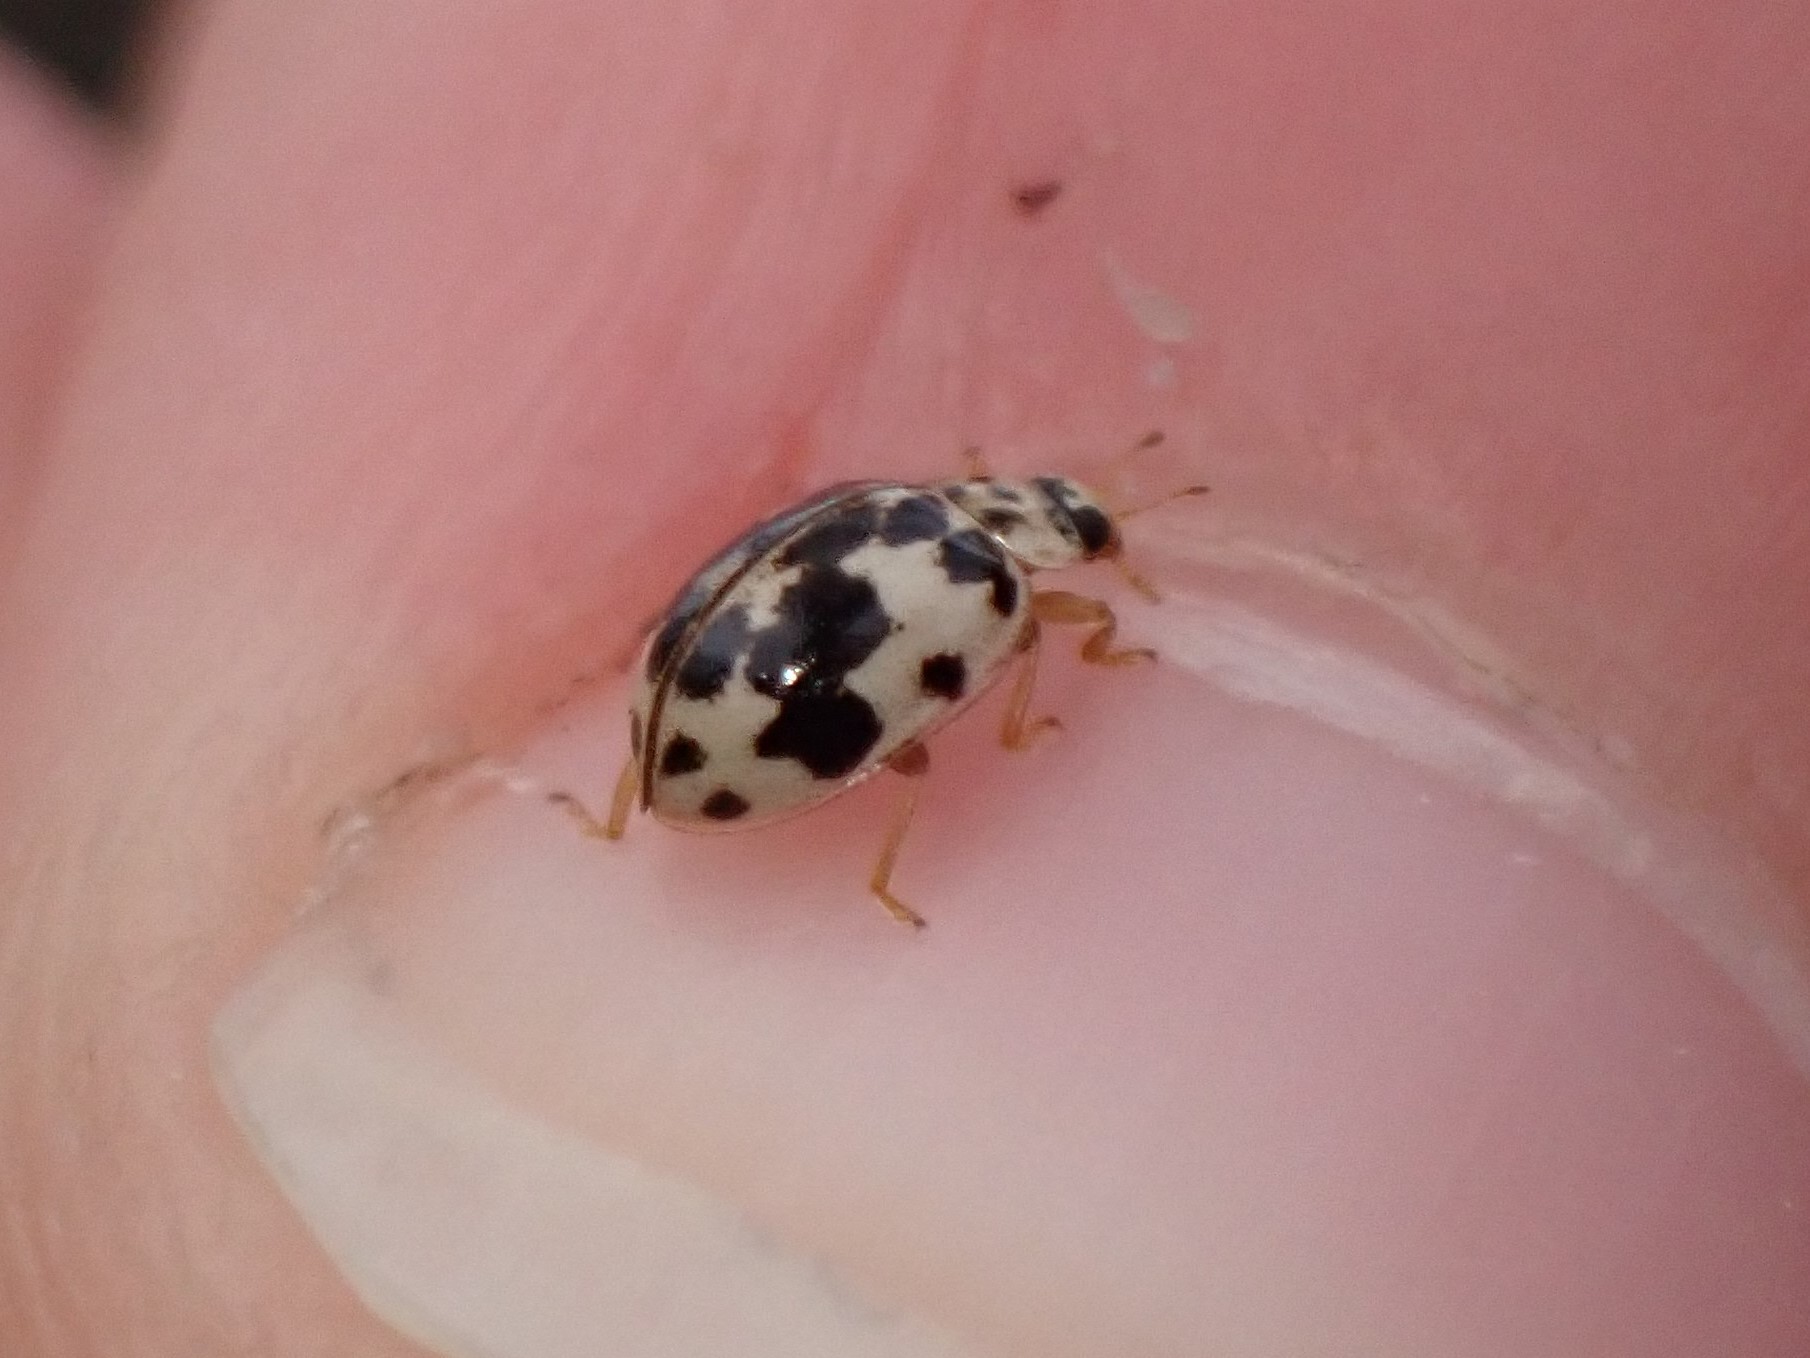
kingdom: Animalia
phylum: Arthropoda
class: Insecta
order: Coleoptera
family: Coccinellidae
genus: Psyllobora
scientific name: Psyllobora borealis
